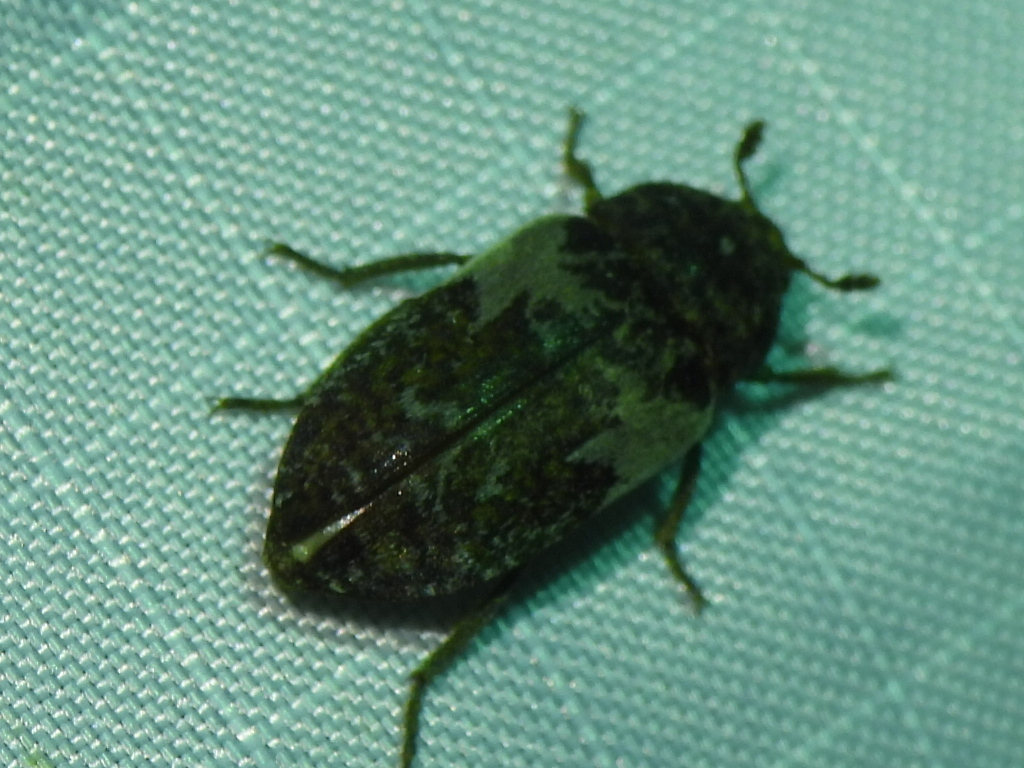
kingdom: Animalia
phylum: Arthropoda
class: Insecta
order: Coleoptera
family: Dermestidae
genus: Dermestes
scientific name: Dermestes marmoratus
